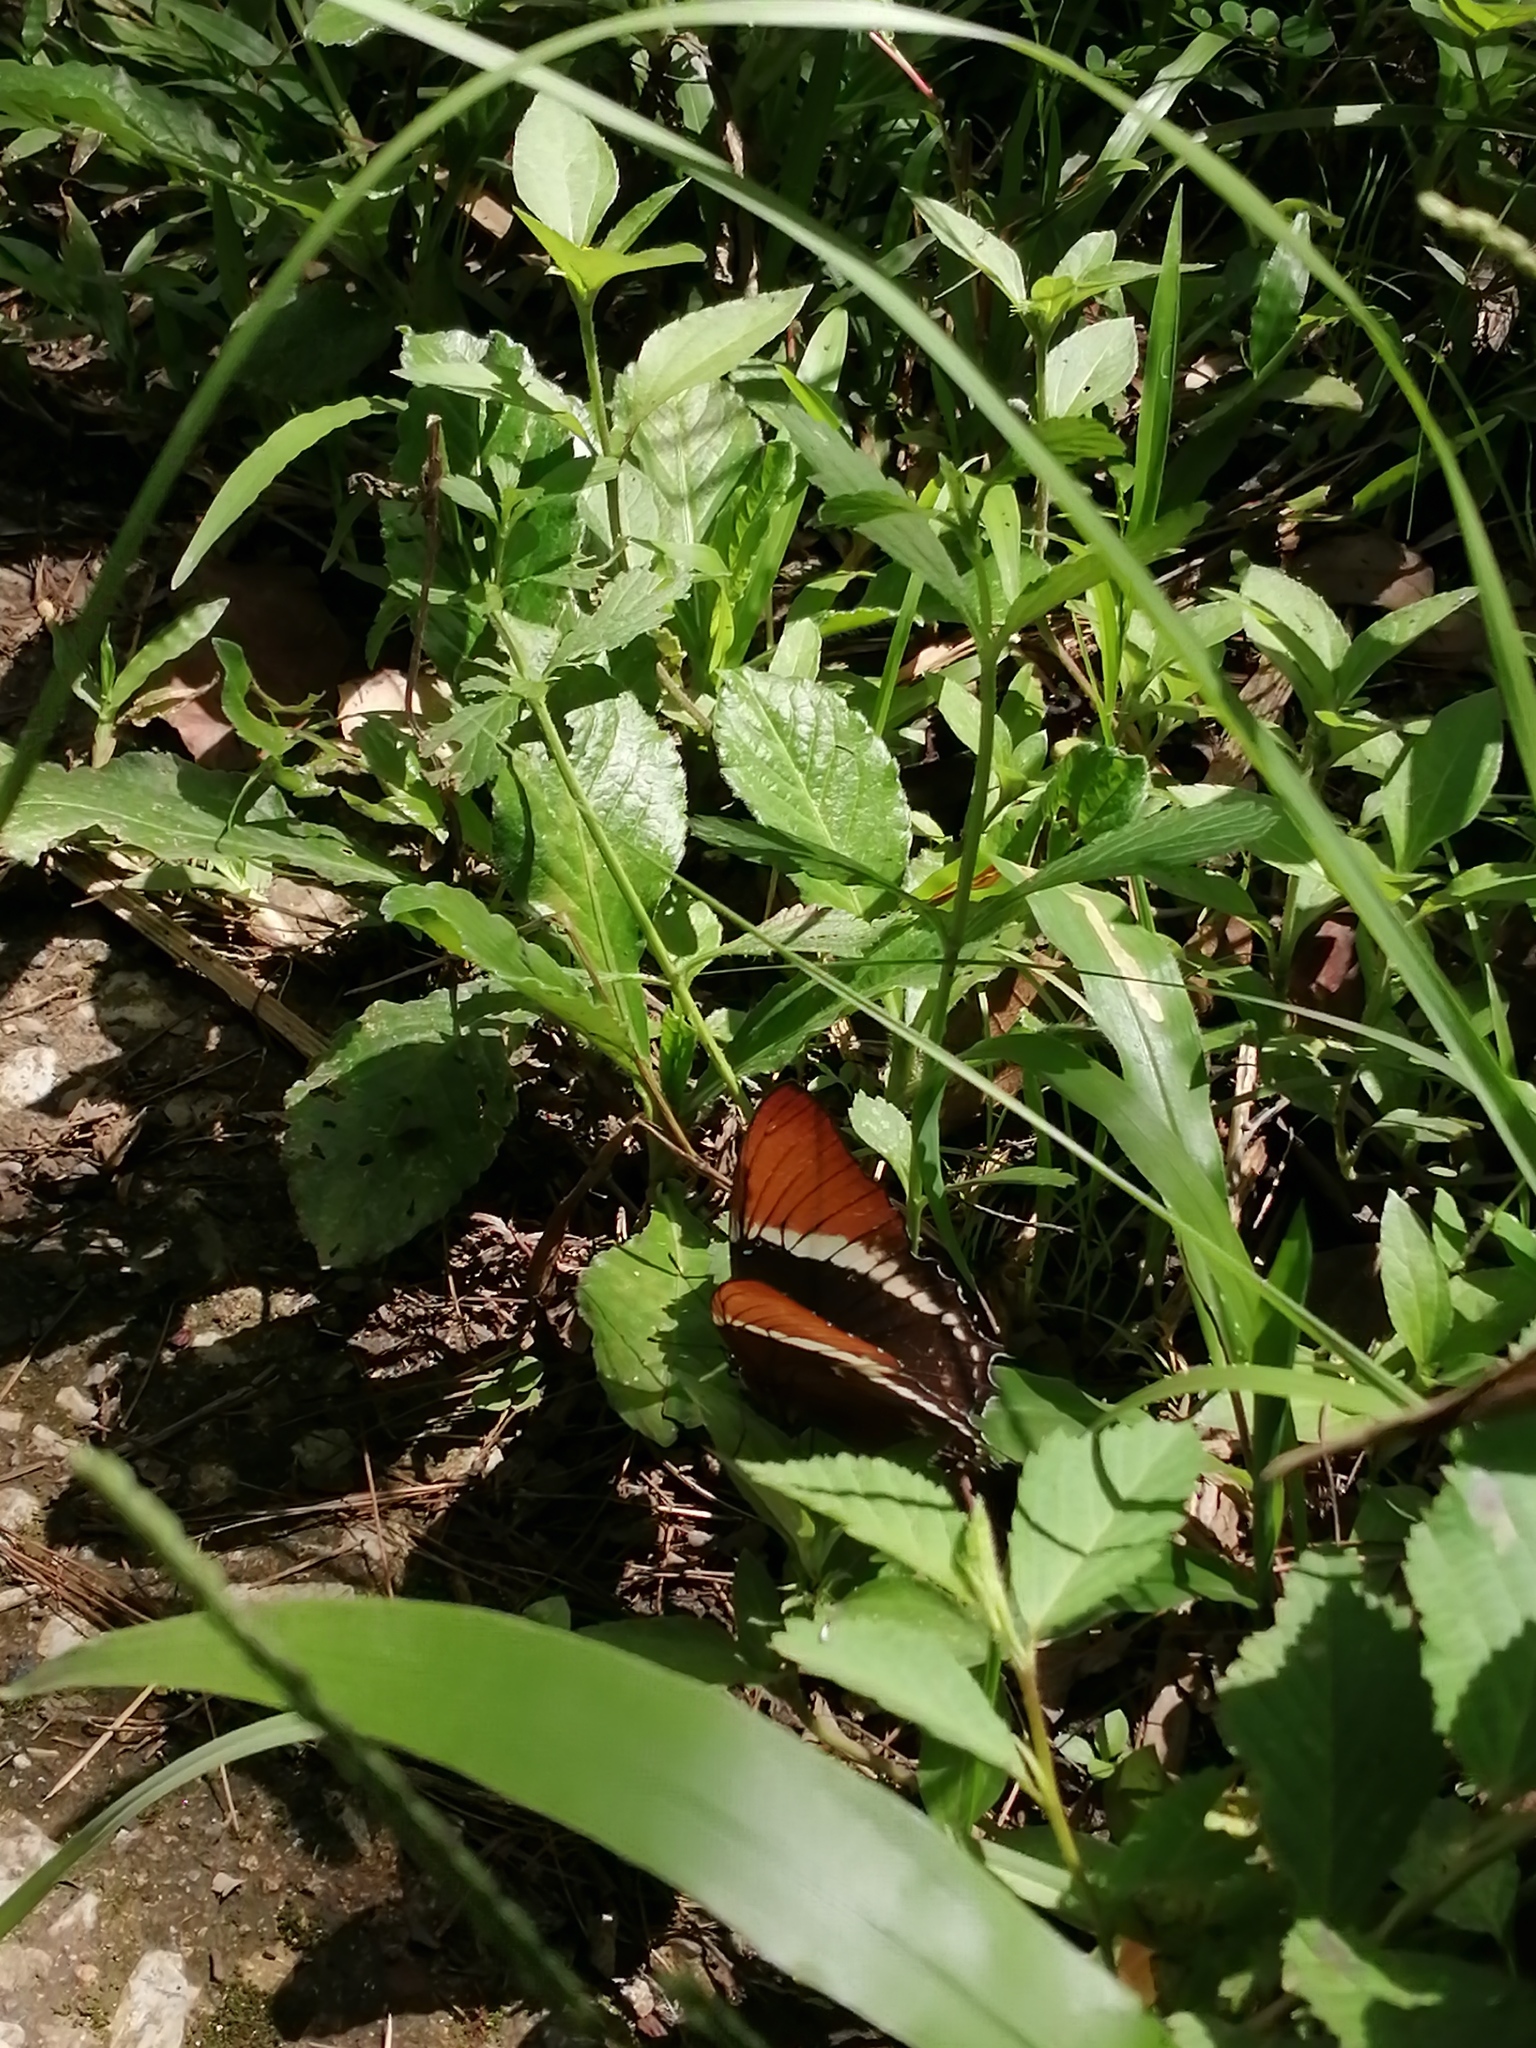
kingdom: Animalia
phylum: Arthropoda
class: Insecta
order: Lepidoptera
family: Nymphalidae
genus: Siproeta
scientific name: Siproeta epaphus
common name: Rusty-tipped page
